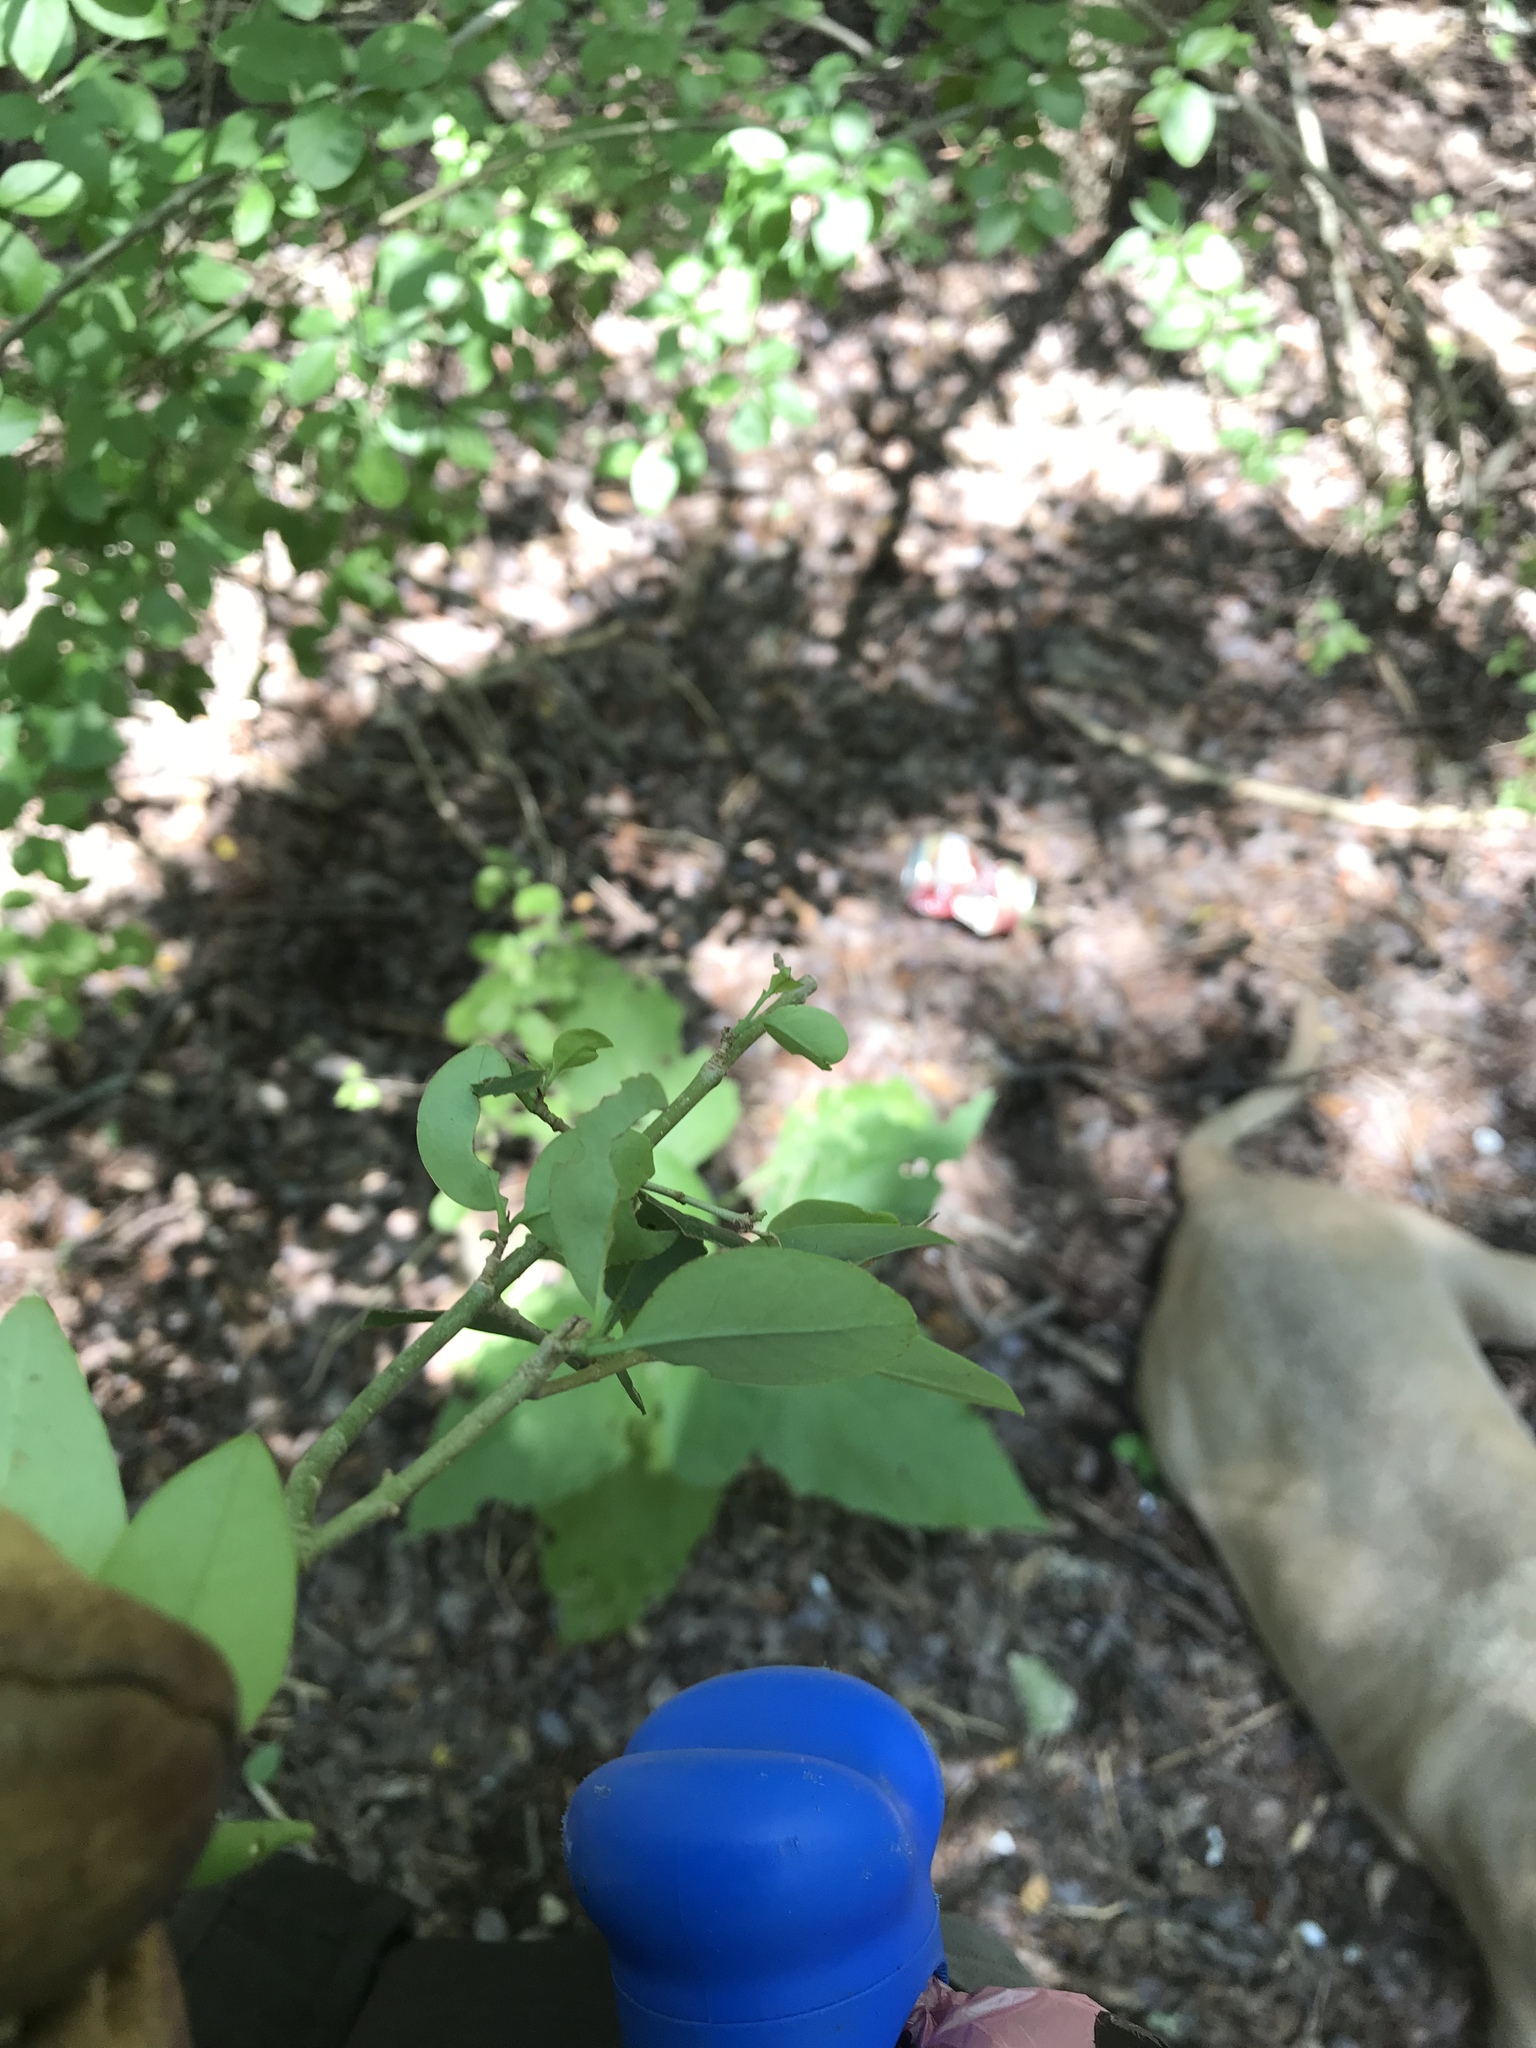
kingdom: Plantae
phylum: Tracheophyta
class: Magnoliopsida
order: Lamiales
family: Oleaceae
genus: Ligustrum
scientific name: Ligustrum lucidum
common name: Glossy privet
